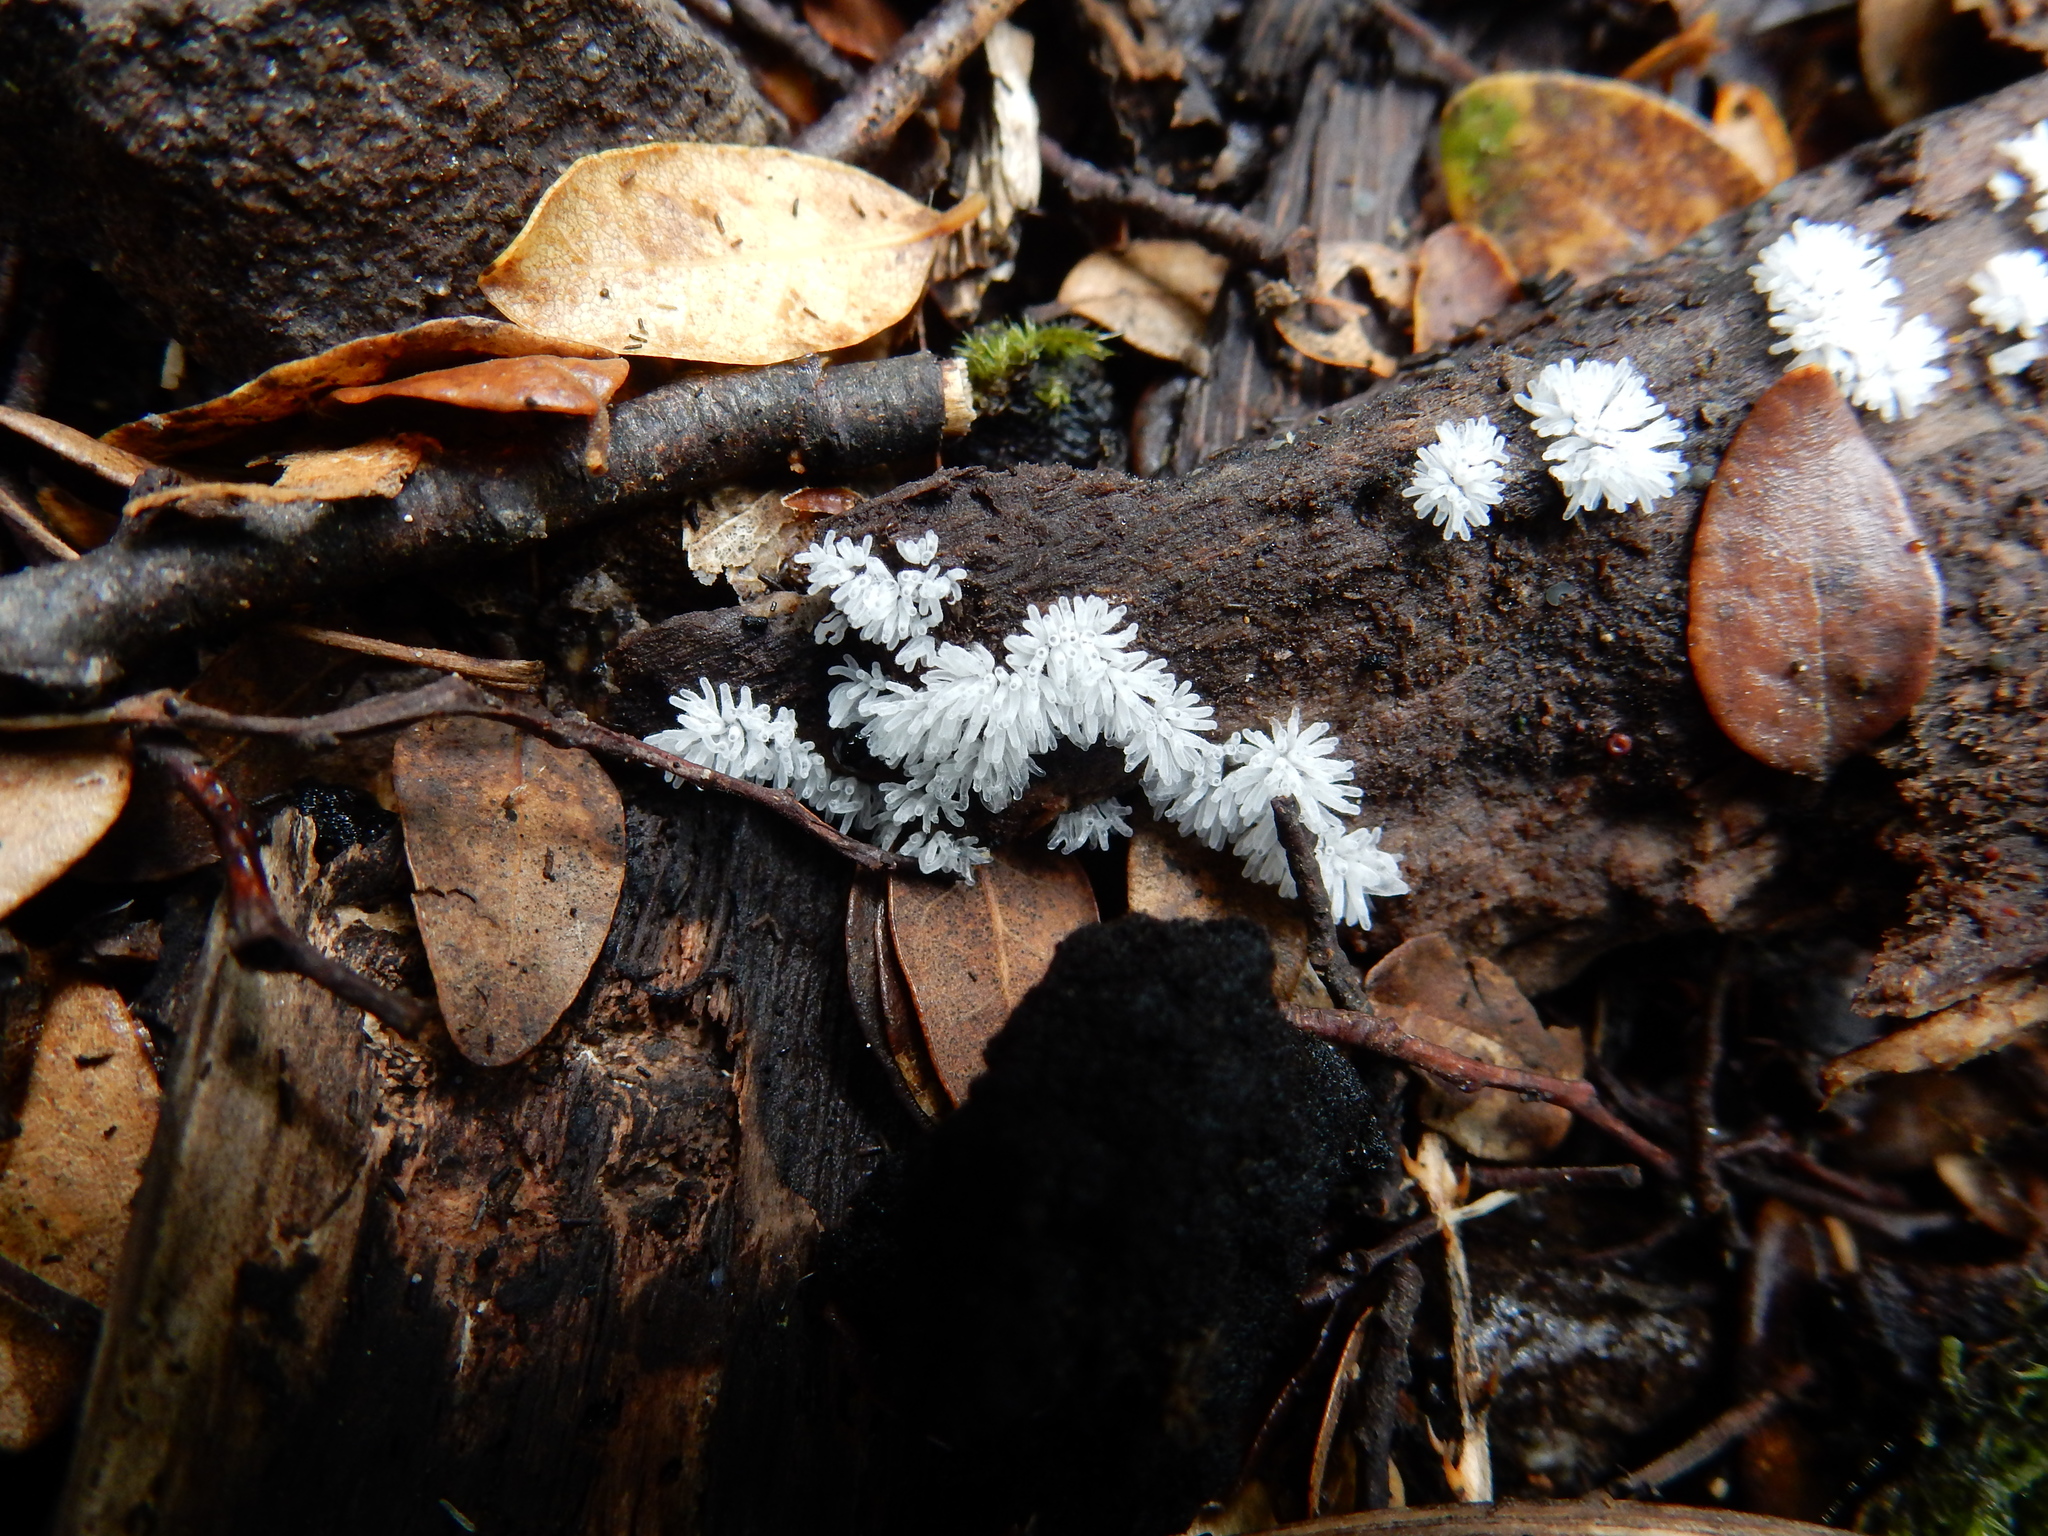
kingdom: Protozoa
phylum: Mycetozoa
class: Protosteliomycetes
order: Ceratiomyxales
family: Ceratiomyxaceae
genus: Ceratiomyxa
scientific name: Ceratiomyxa fruticulosa
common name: Honeycomb coral slime mold
